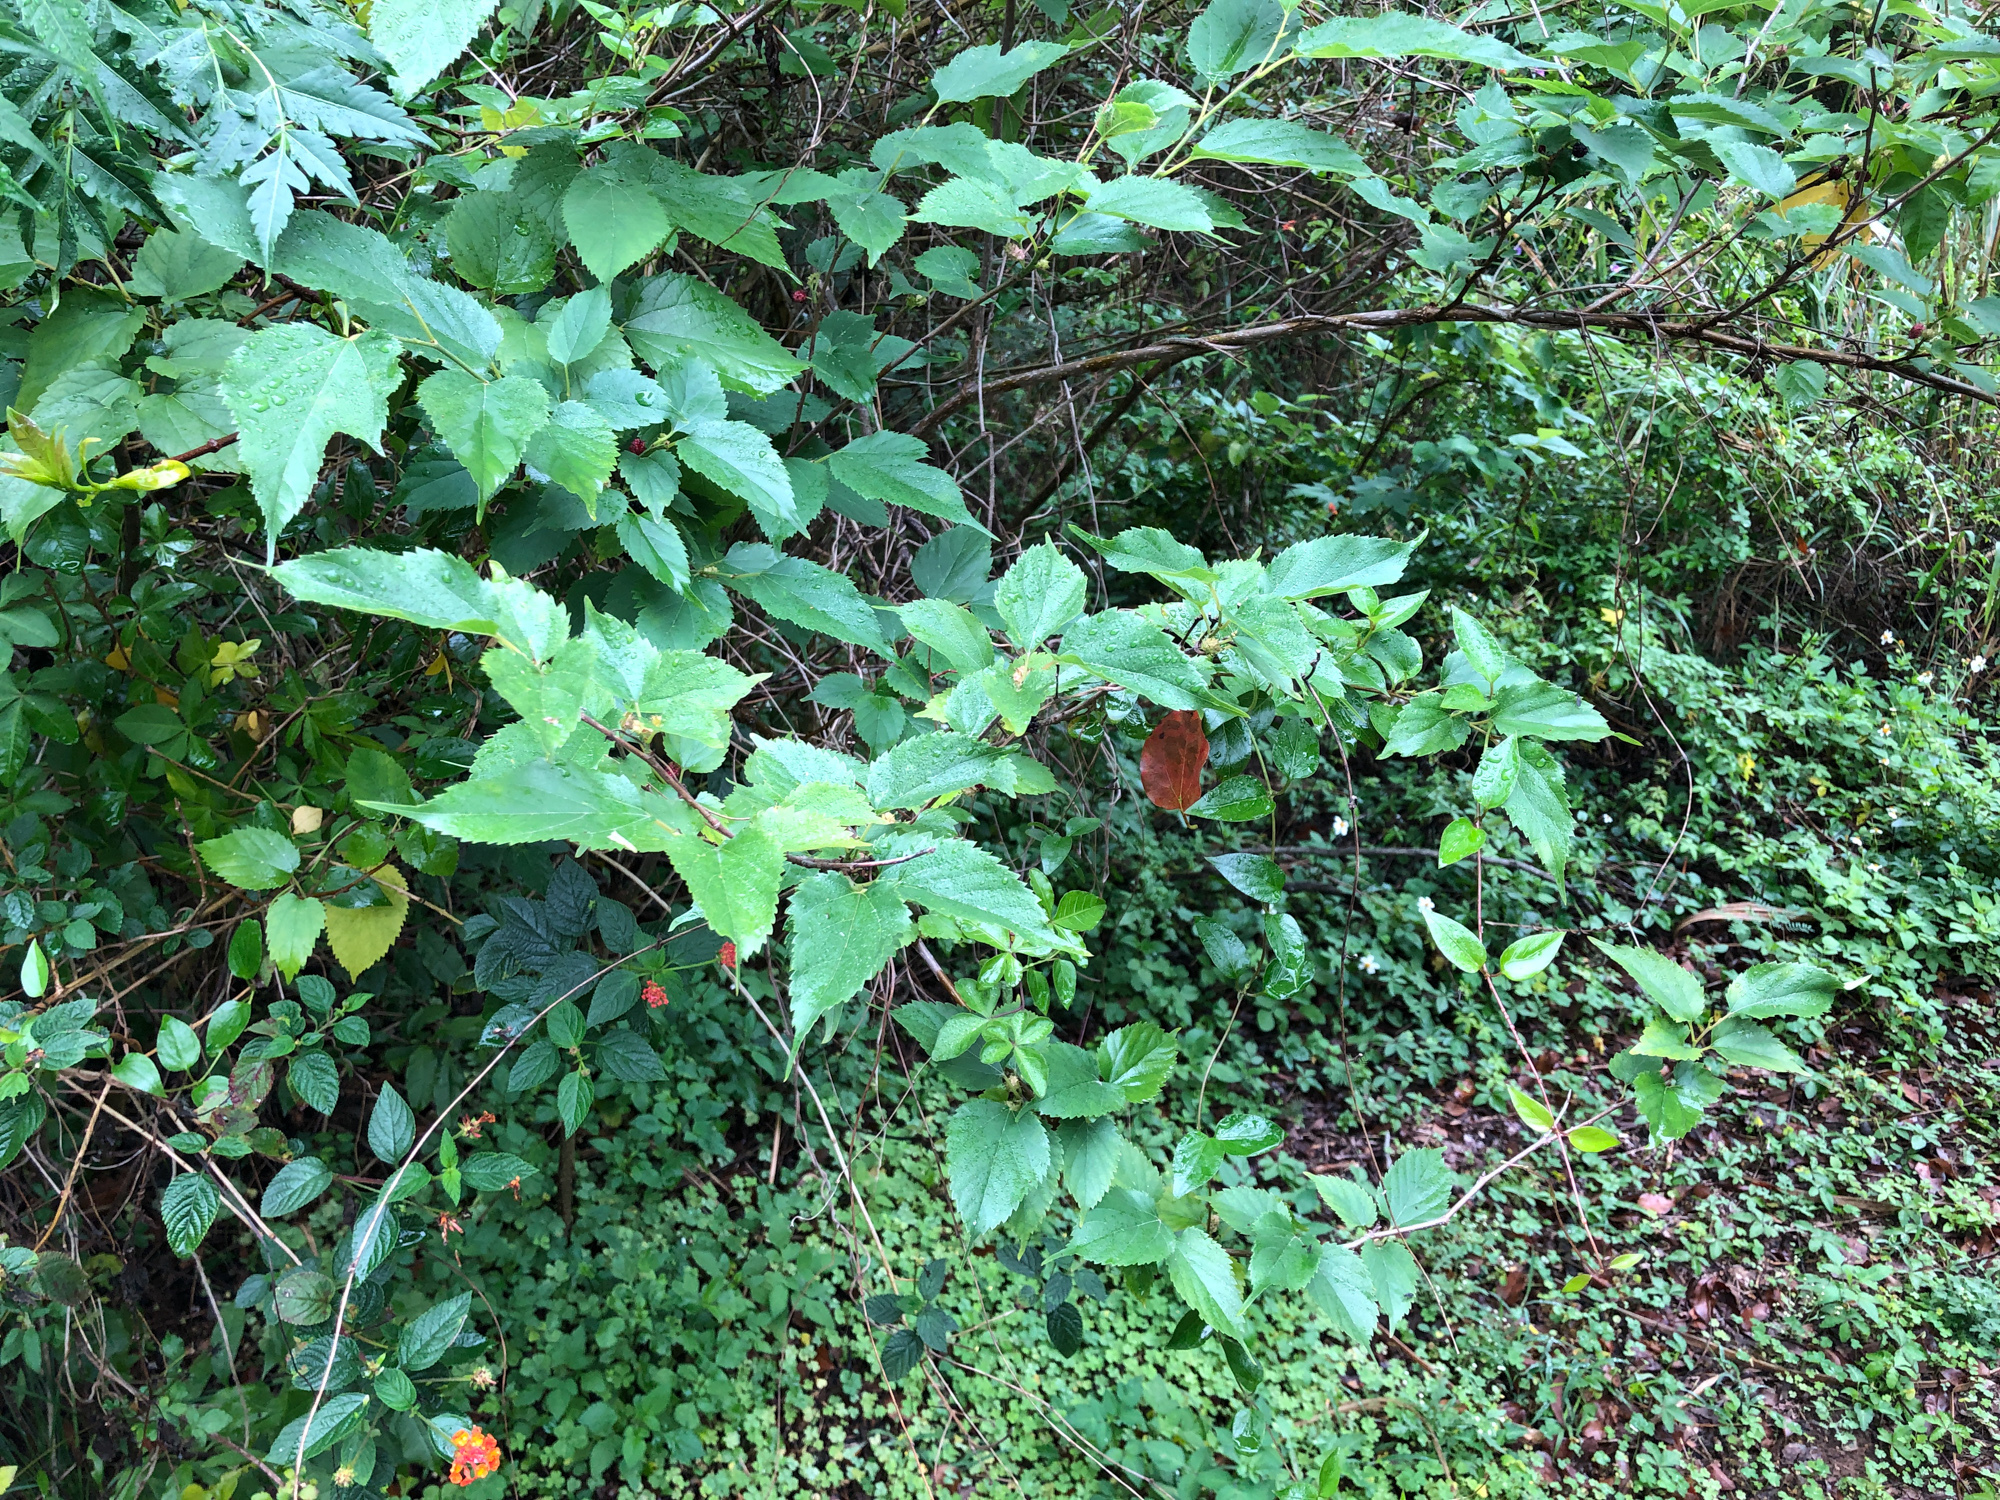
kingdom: Plantae
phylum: Tracheophyta
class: Magnoliopsida
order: Rosales
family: Moraceae
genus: Morus
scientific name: Morus indica
